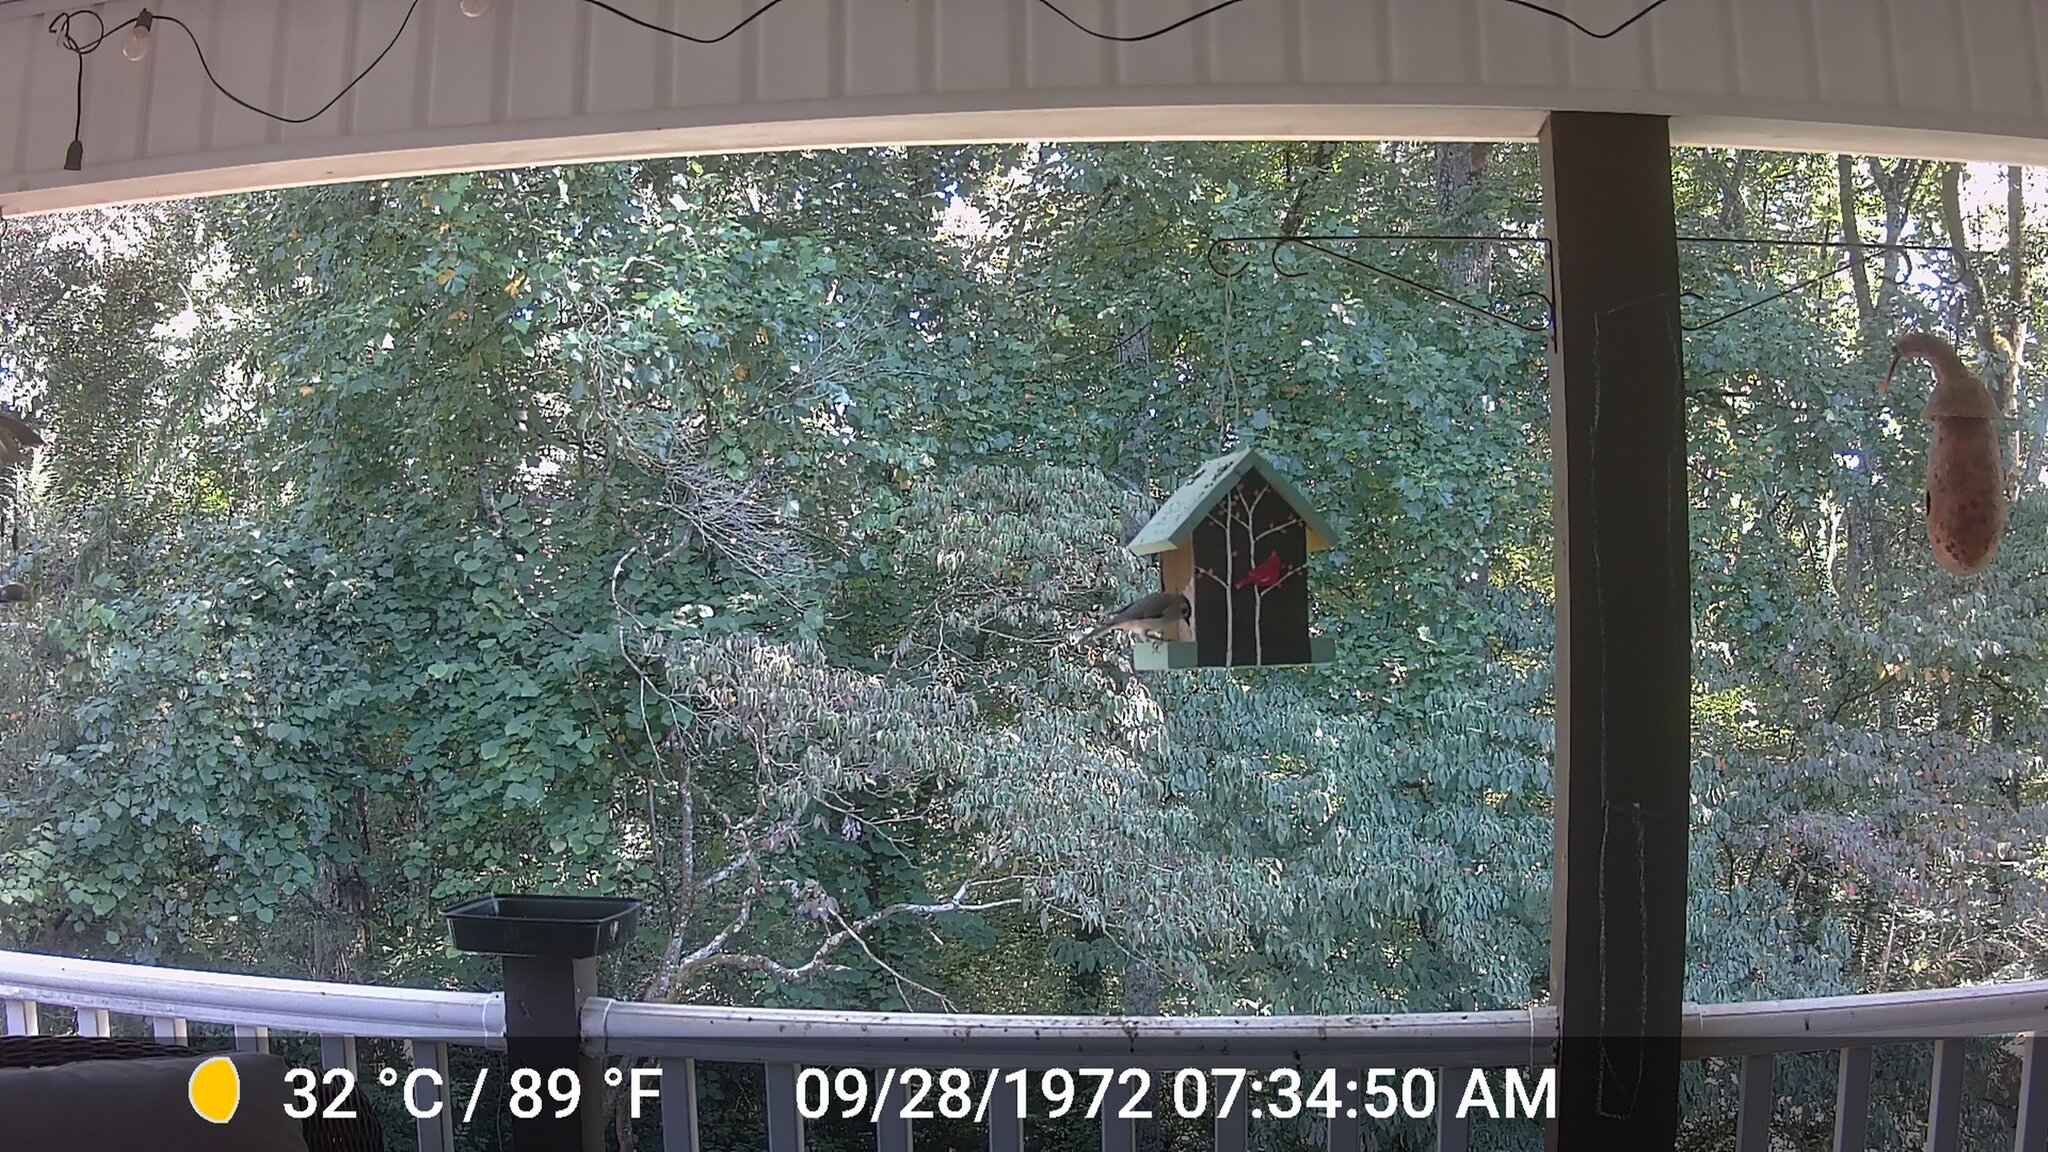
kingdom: Animalia
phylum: Chordata
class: Aves
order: Passeriformes
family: Paridae
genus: Baeolophus
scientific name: Baeolophus bicolor
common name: Tufted titmouse
